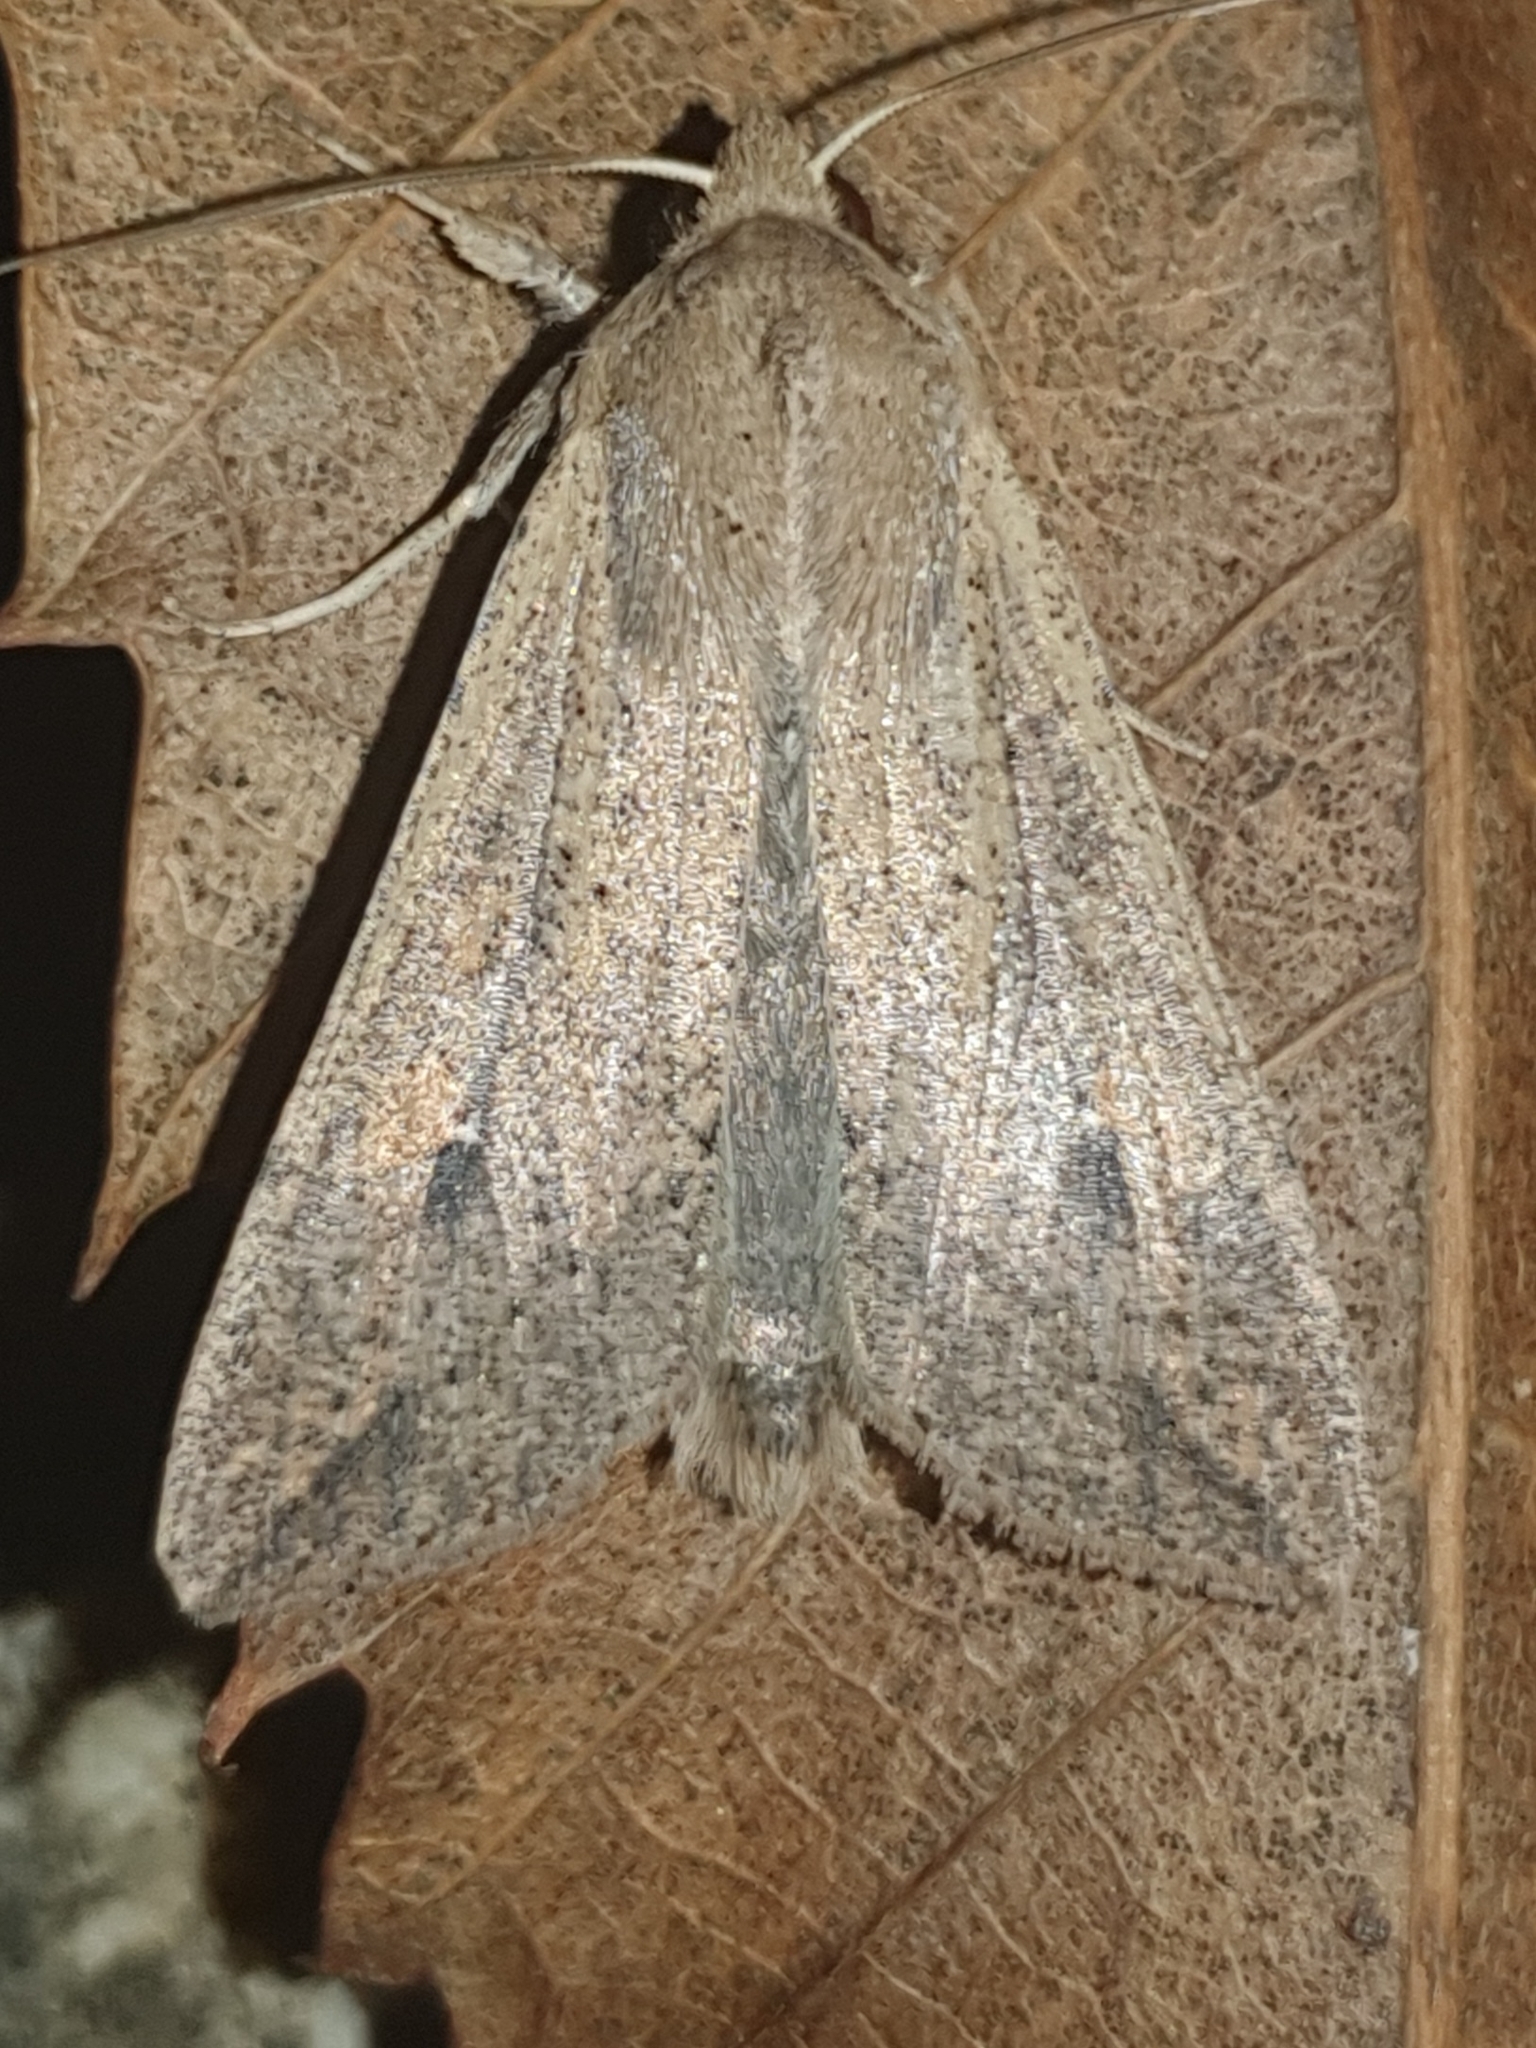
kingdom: Animalia
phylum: Arthropoda
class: Insecta
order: Lepidoptera
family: Noctuidae
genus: Mythimna
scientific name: Mythimna unipuncta
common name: White-speck
